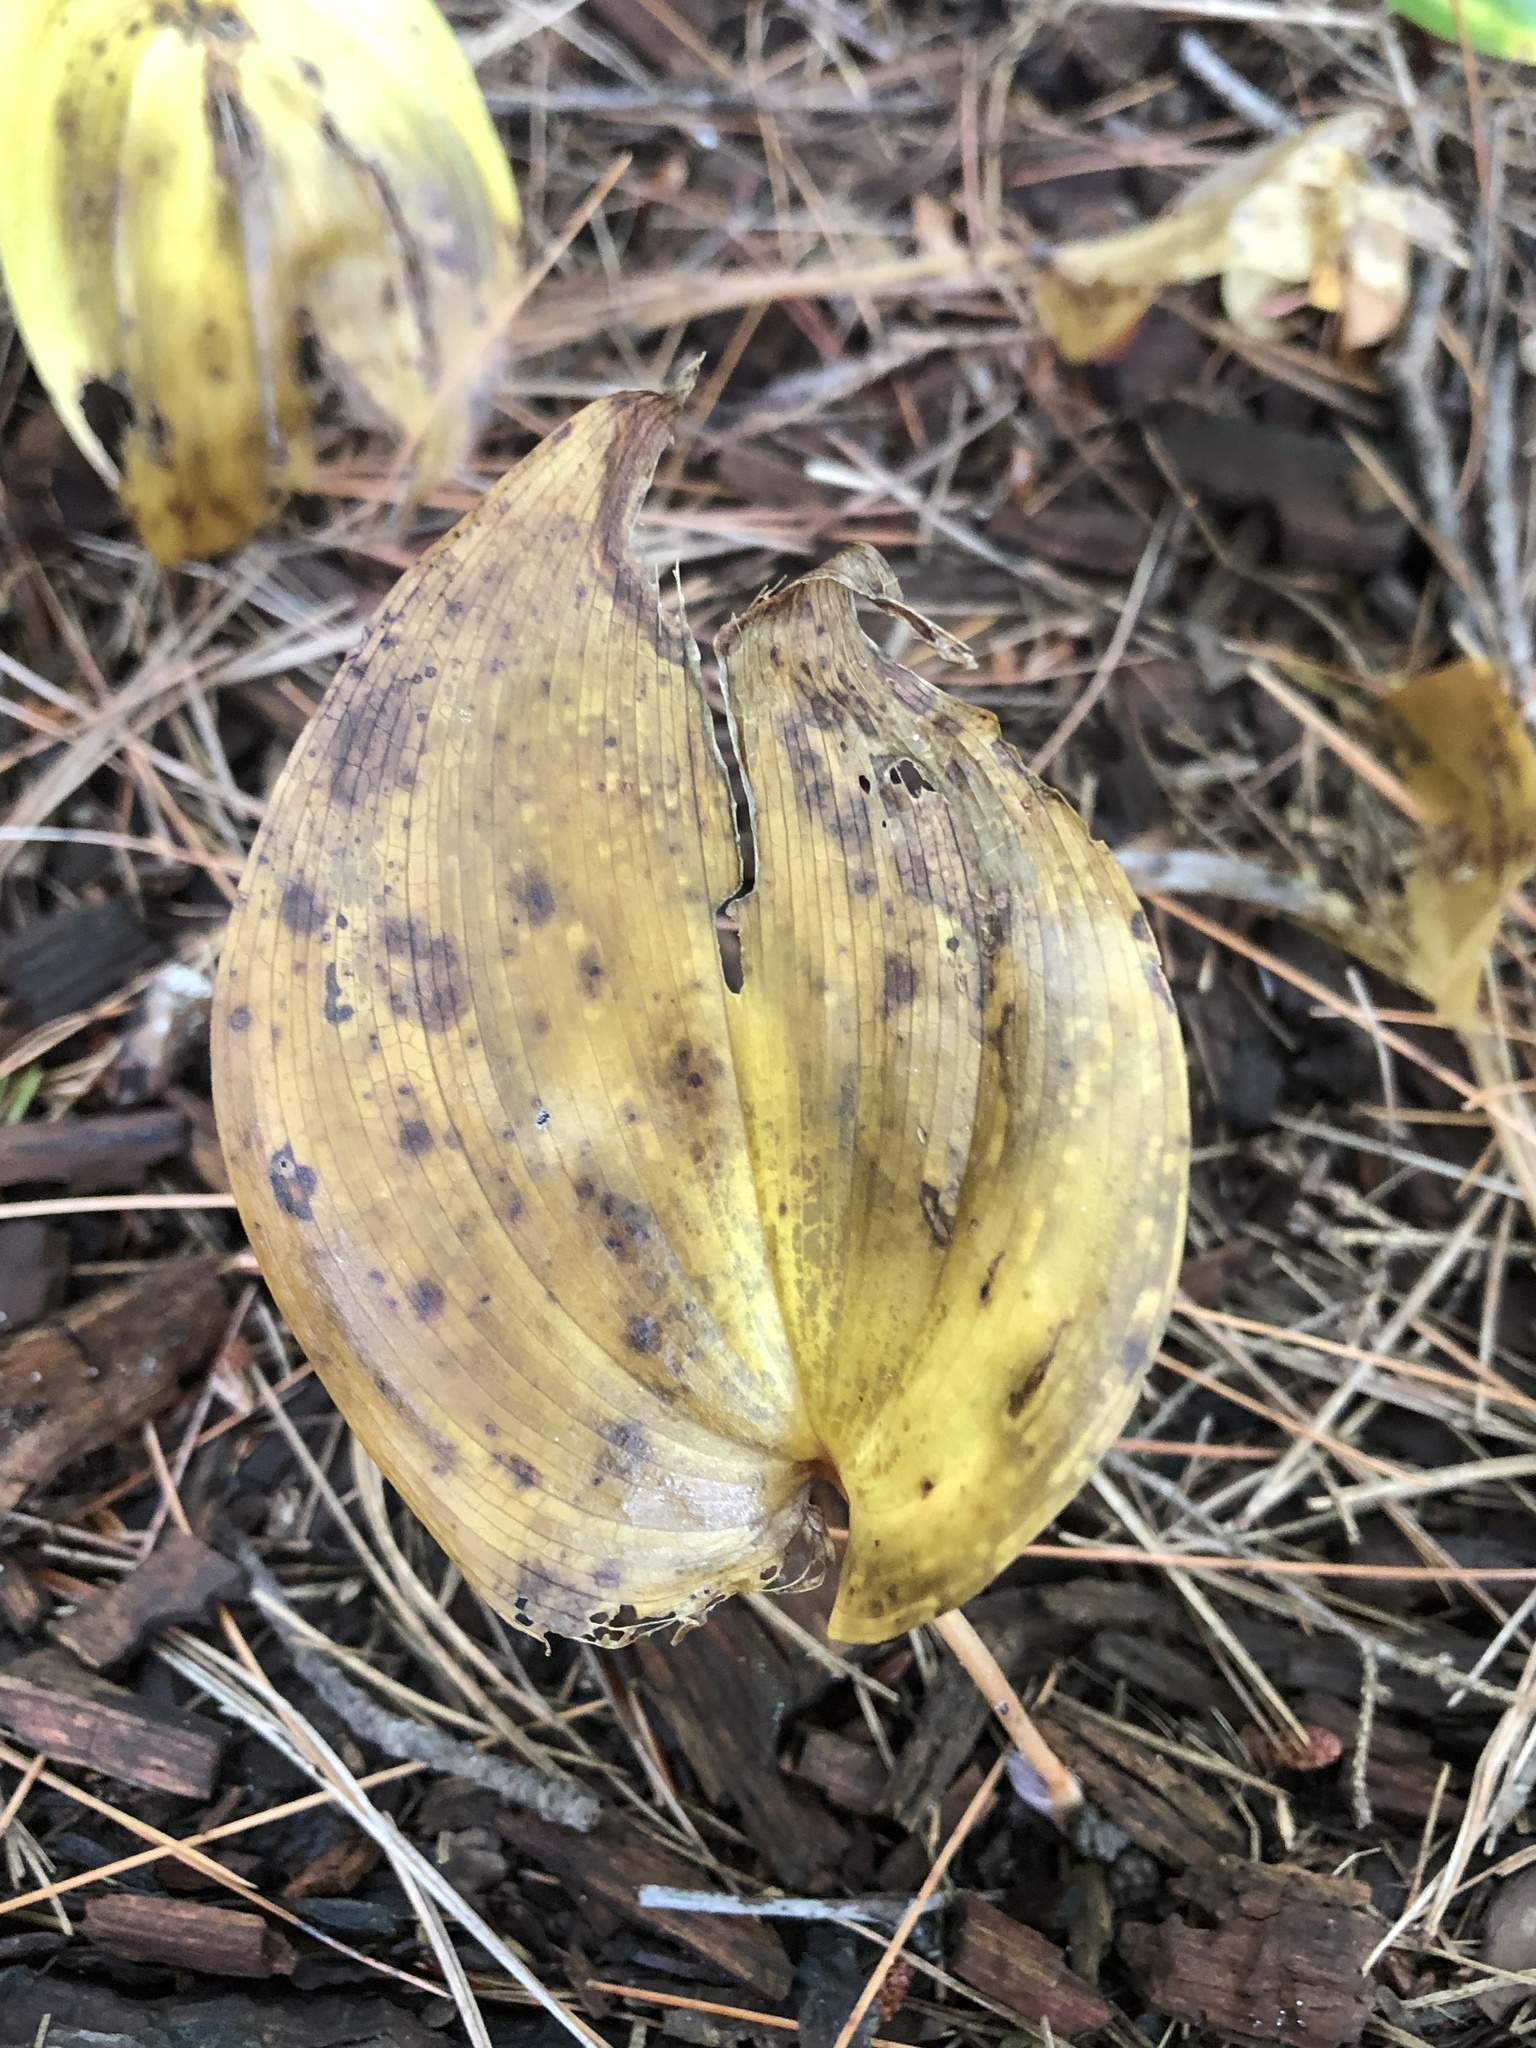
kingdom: Plantae
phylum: Tracheophyta
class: Liliopsida
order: Asparagales
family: Asparagaceae
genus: Maianthemum
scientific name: Maianthemum canadense
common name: False lily-of-the-valley
